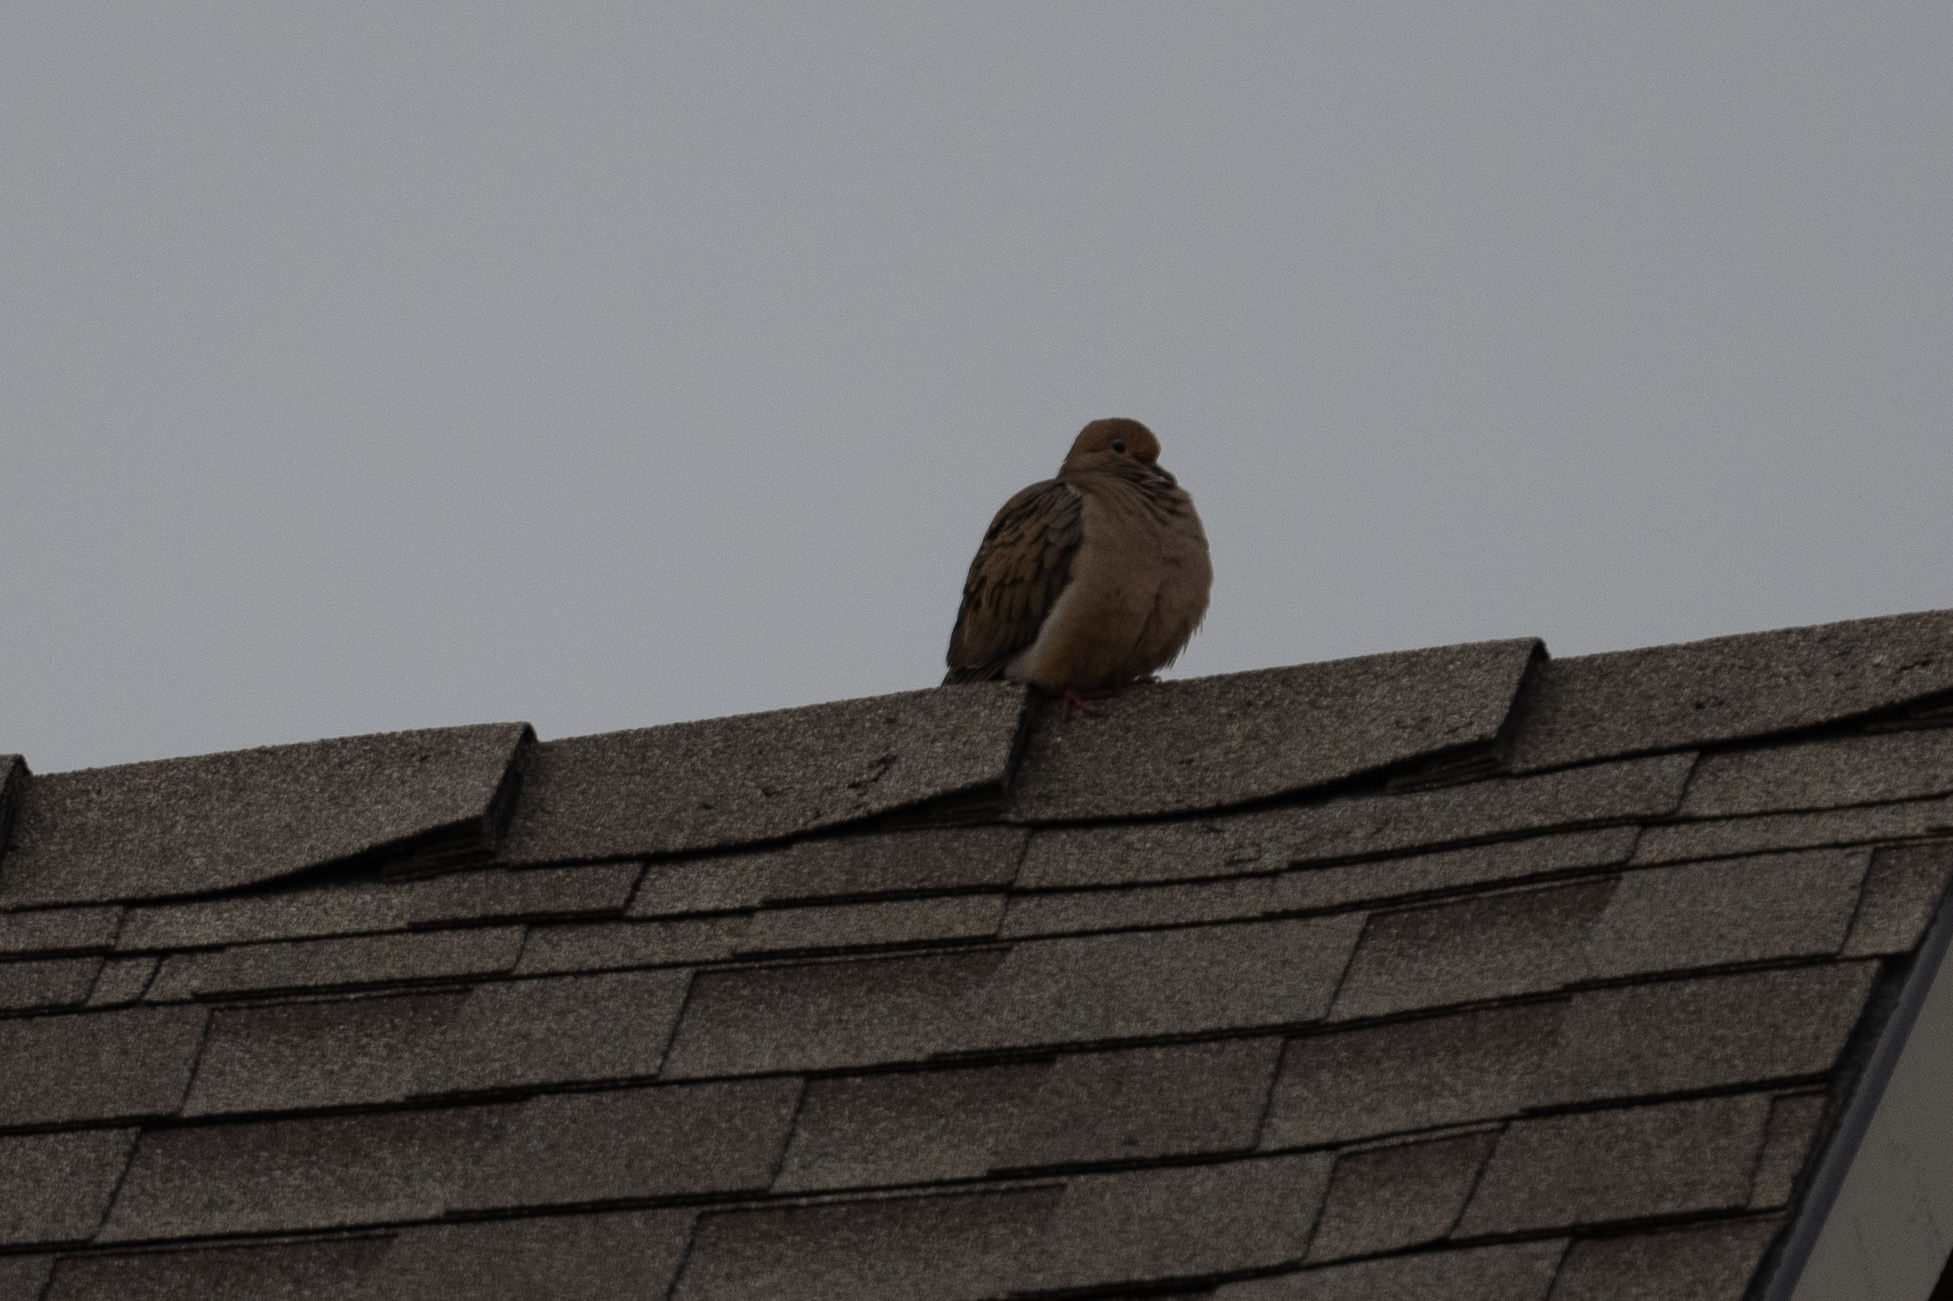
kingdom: Animalia
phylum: Chordata
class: Aves
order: Columbiformes
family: Columbidae
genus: Zenaida
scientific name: Zenaida macroura
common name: Mourning dove
